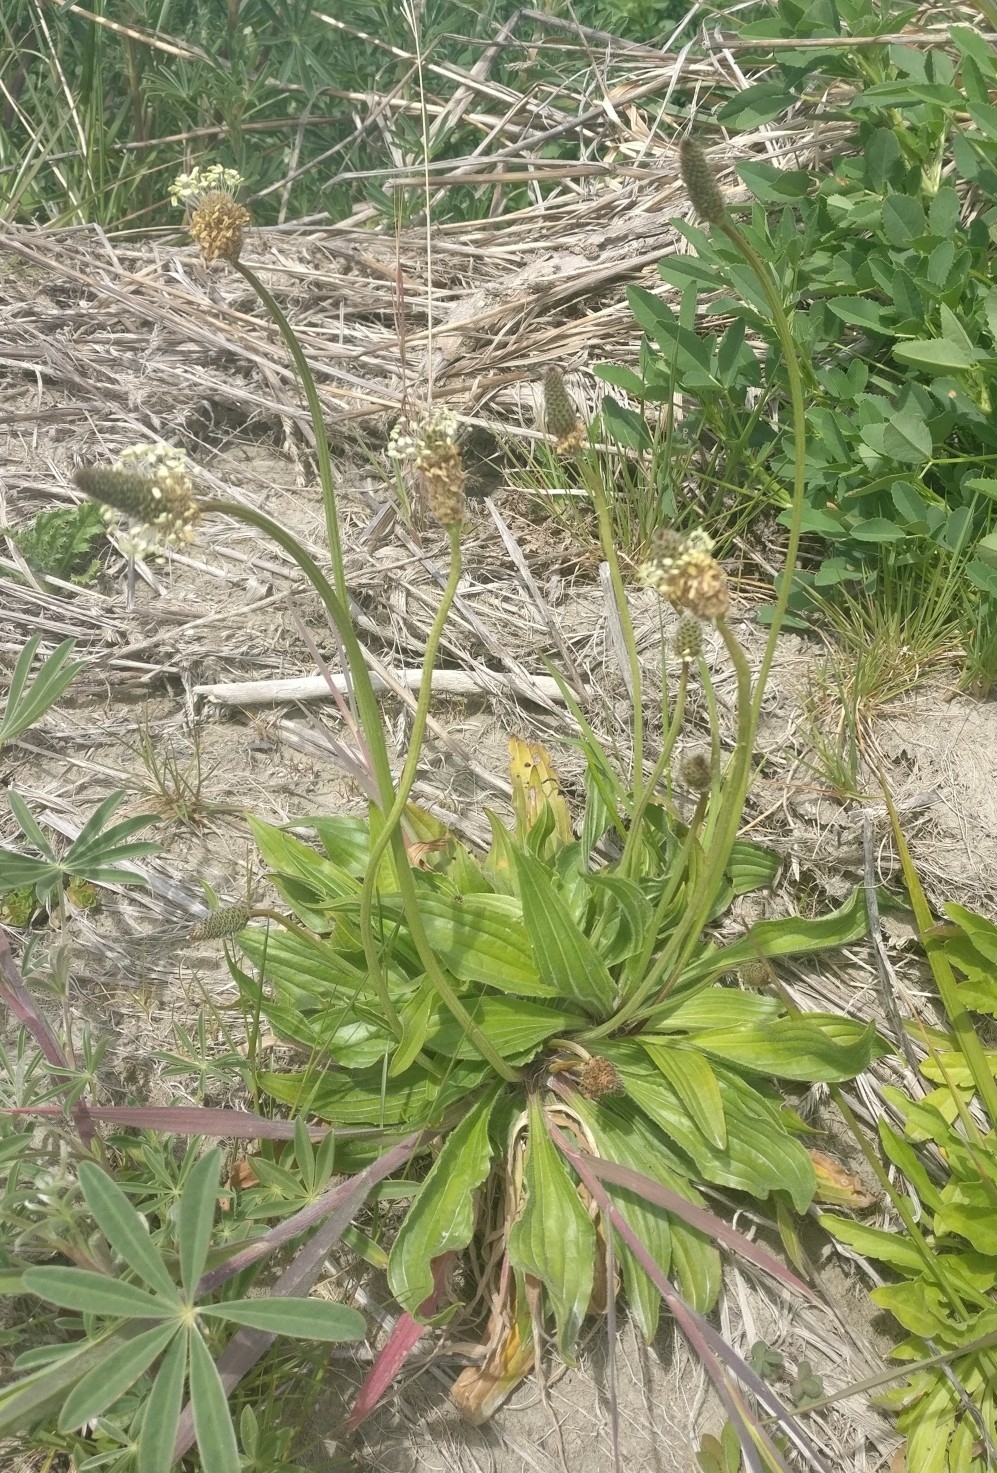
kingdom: Plantae
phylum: Tracheophyta
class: Magnoliopsida
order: Lamiales
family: Plantaginaceae
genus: Plantago
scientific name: Plantago lanceolata
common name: Ribwort plantain
